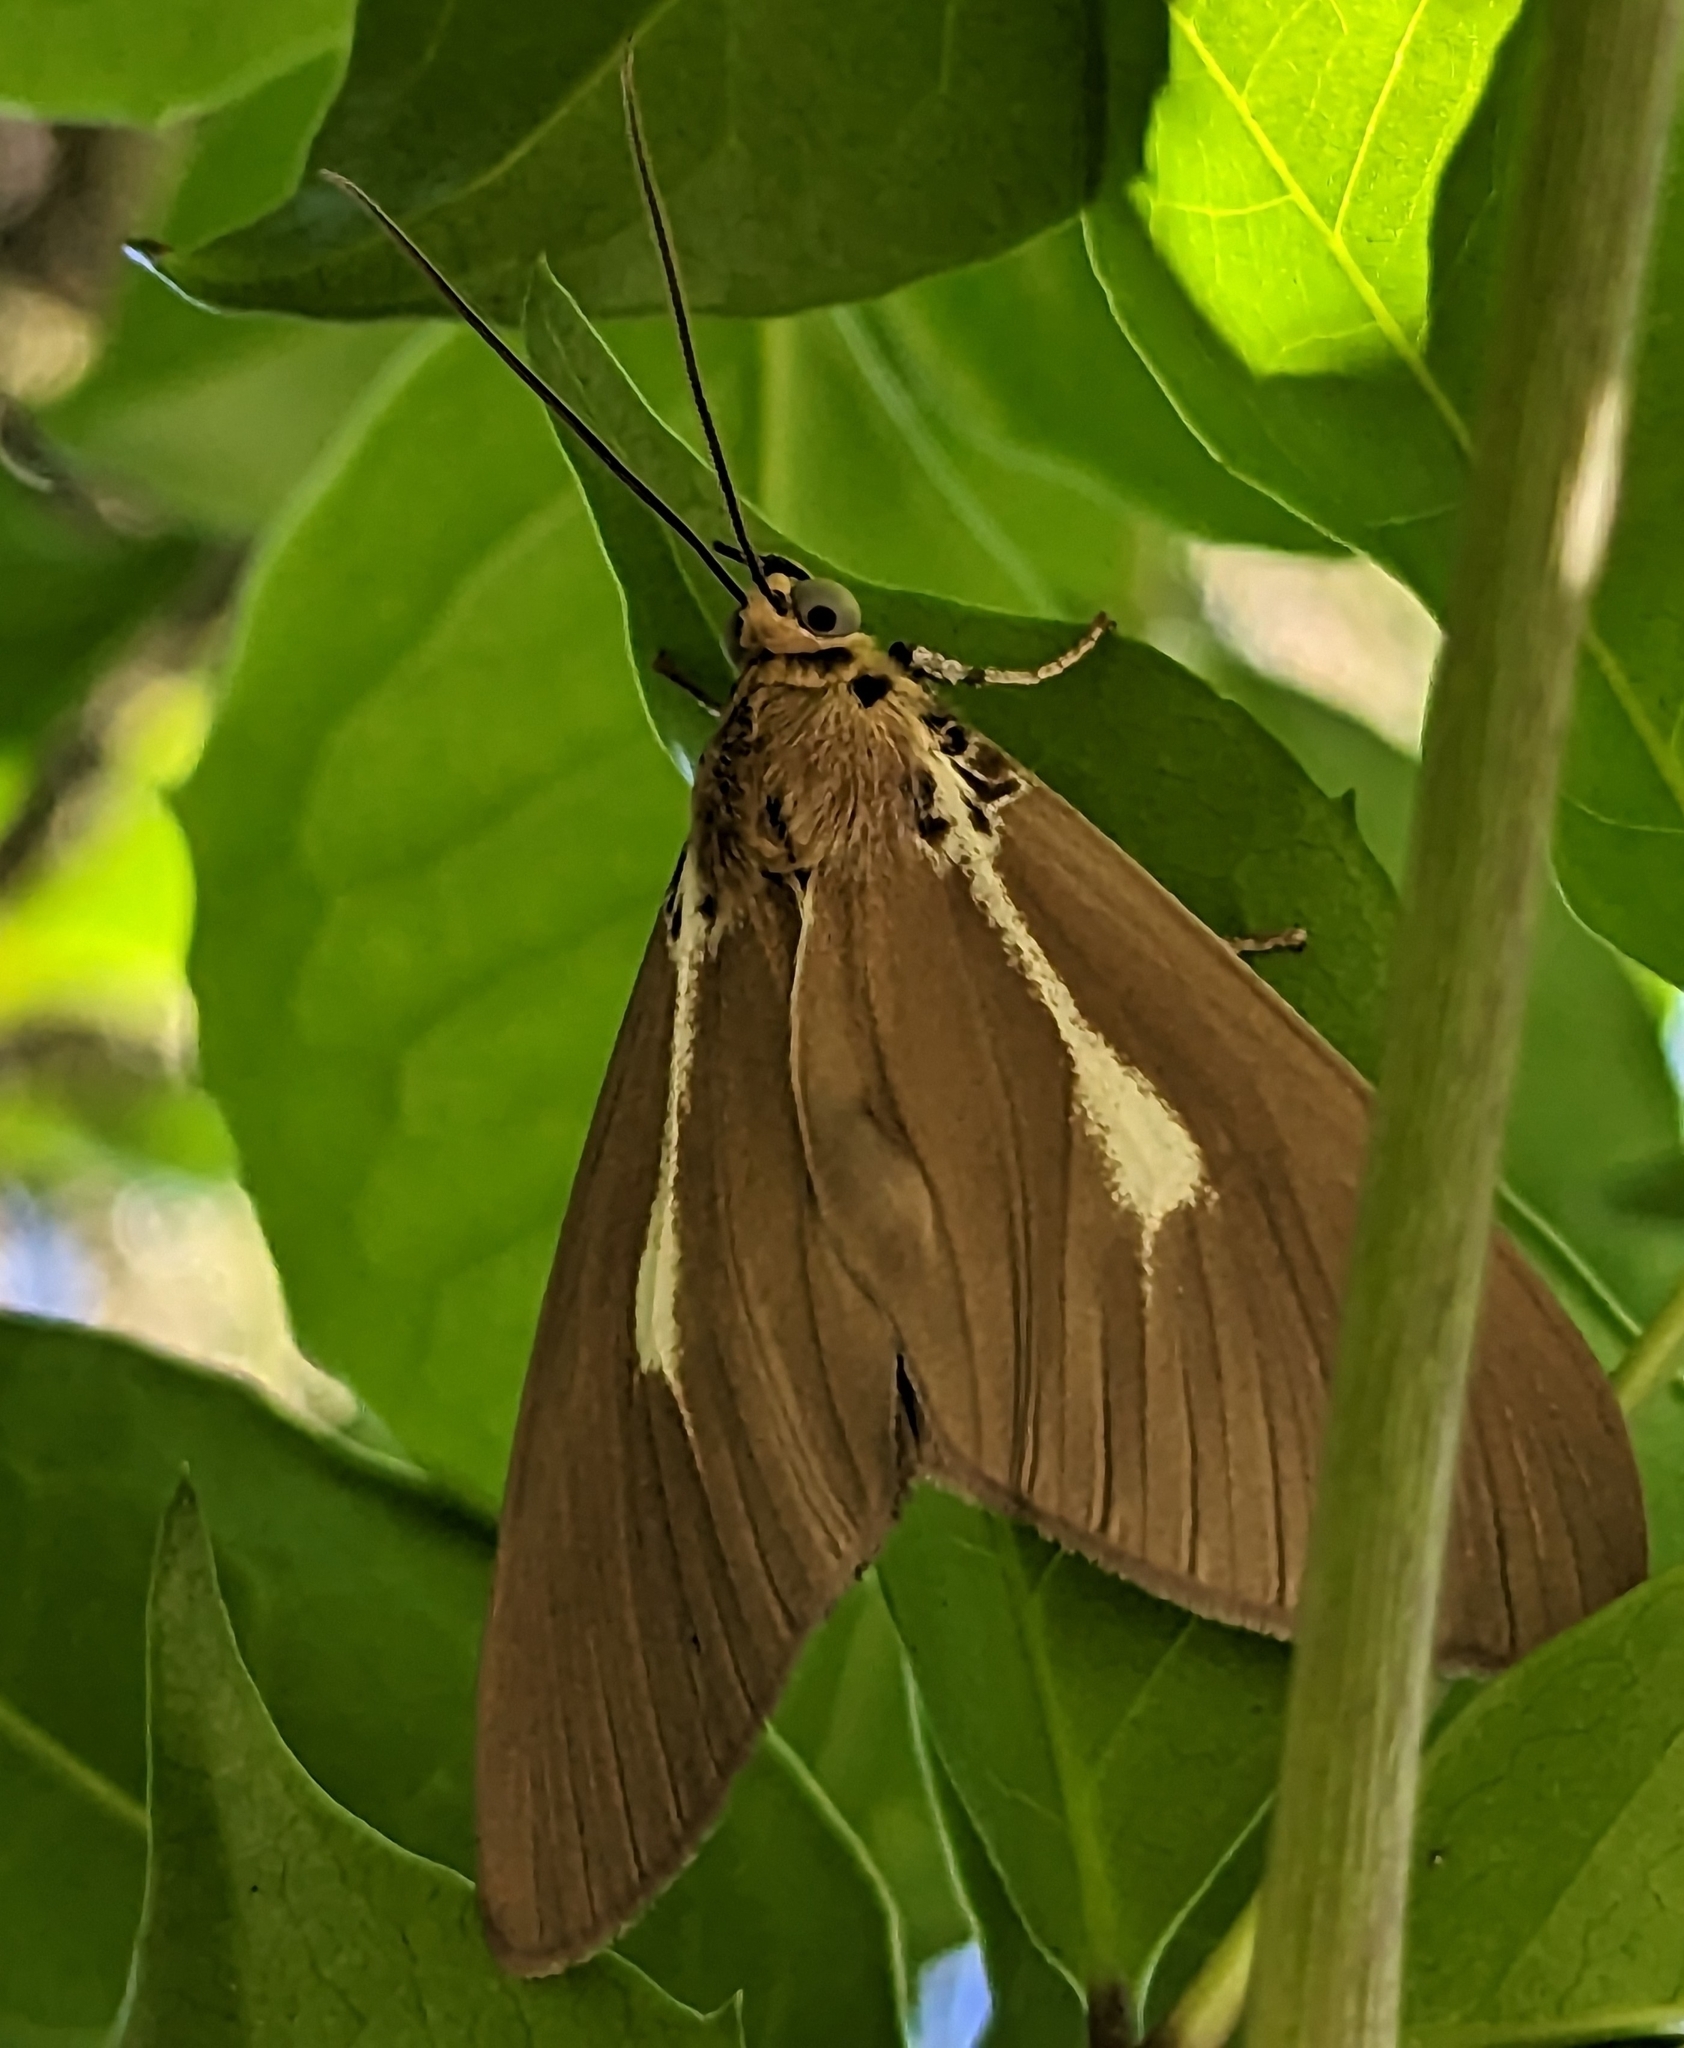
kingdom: Animalia
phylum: Arthropoda
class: Insecta
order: Lepidoptera
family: Erebidae
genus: Asota
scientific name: Asota heliconia
